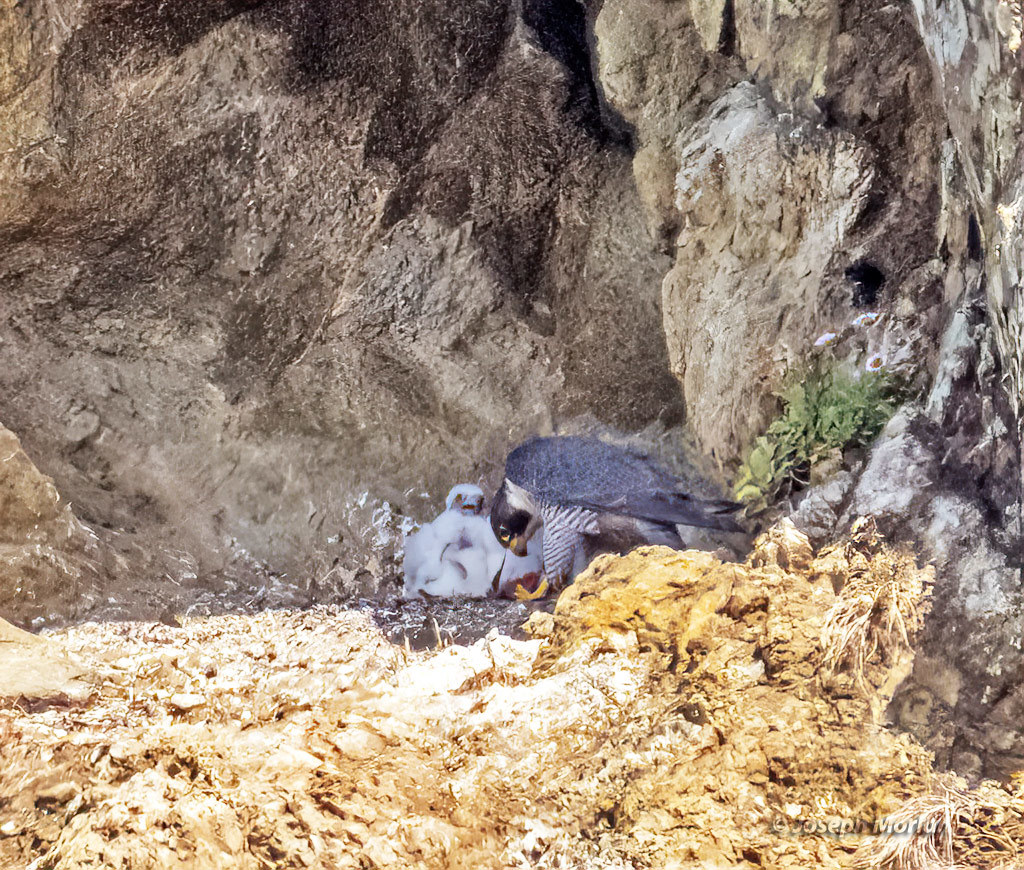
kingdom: Animalia
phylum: Chordata
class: Aves
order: Falconiformes
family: Falconidae
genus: Falco
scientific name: Falco peregrinus
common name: Peregrine falcon
